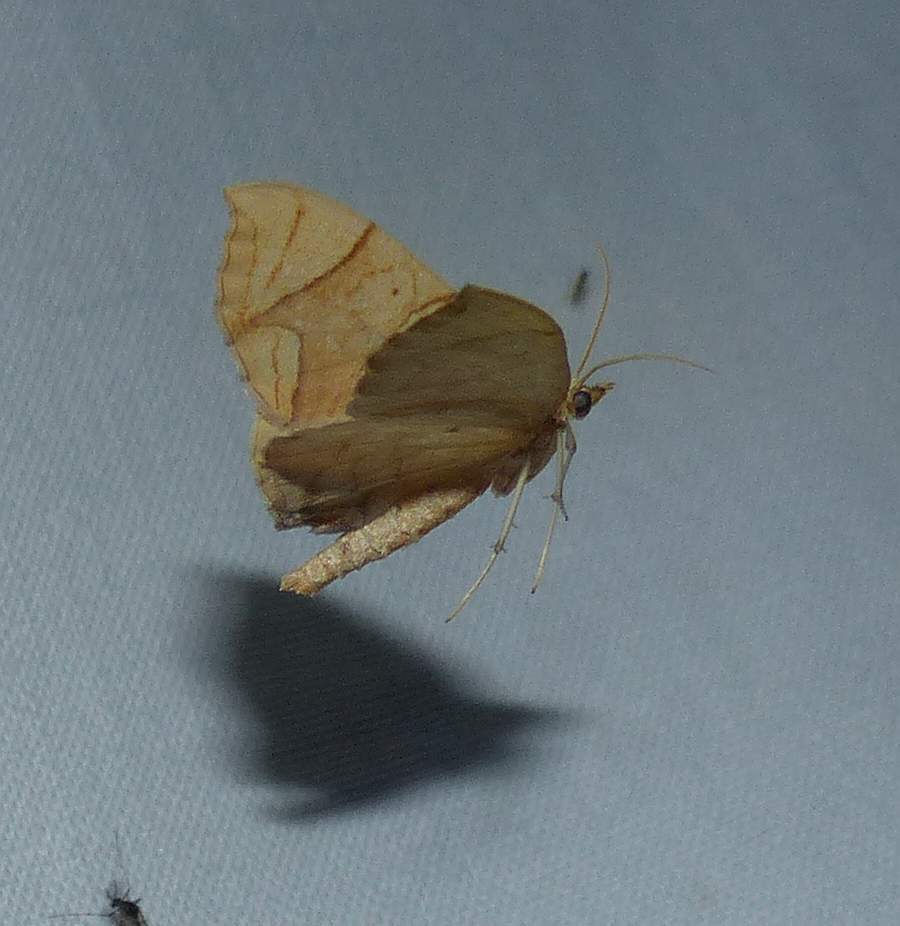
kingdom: Animalia
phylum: Arthropoda
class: Insecta
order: Lepidoptera
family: Geometridae
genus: Eulithis
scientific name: Eulithis
